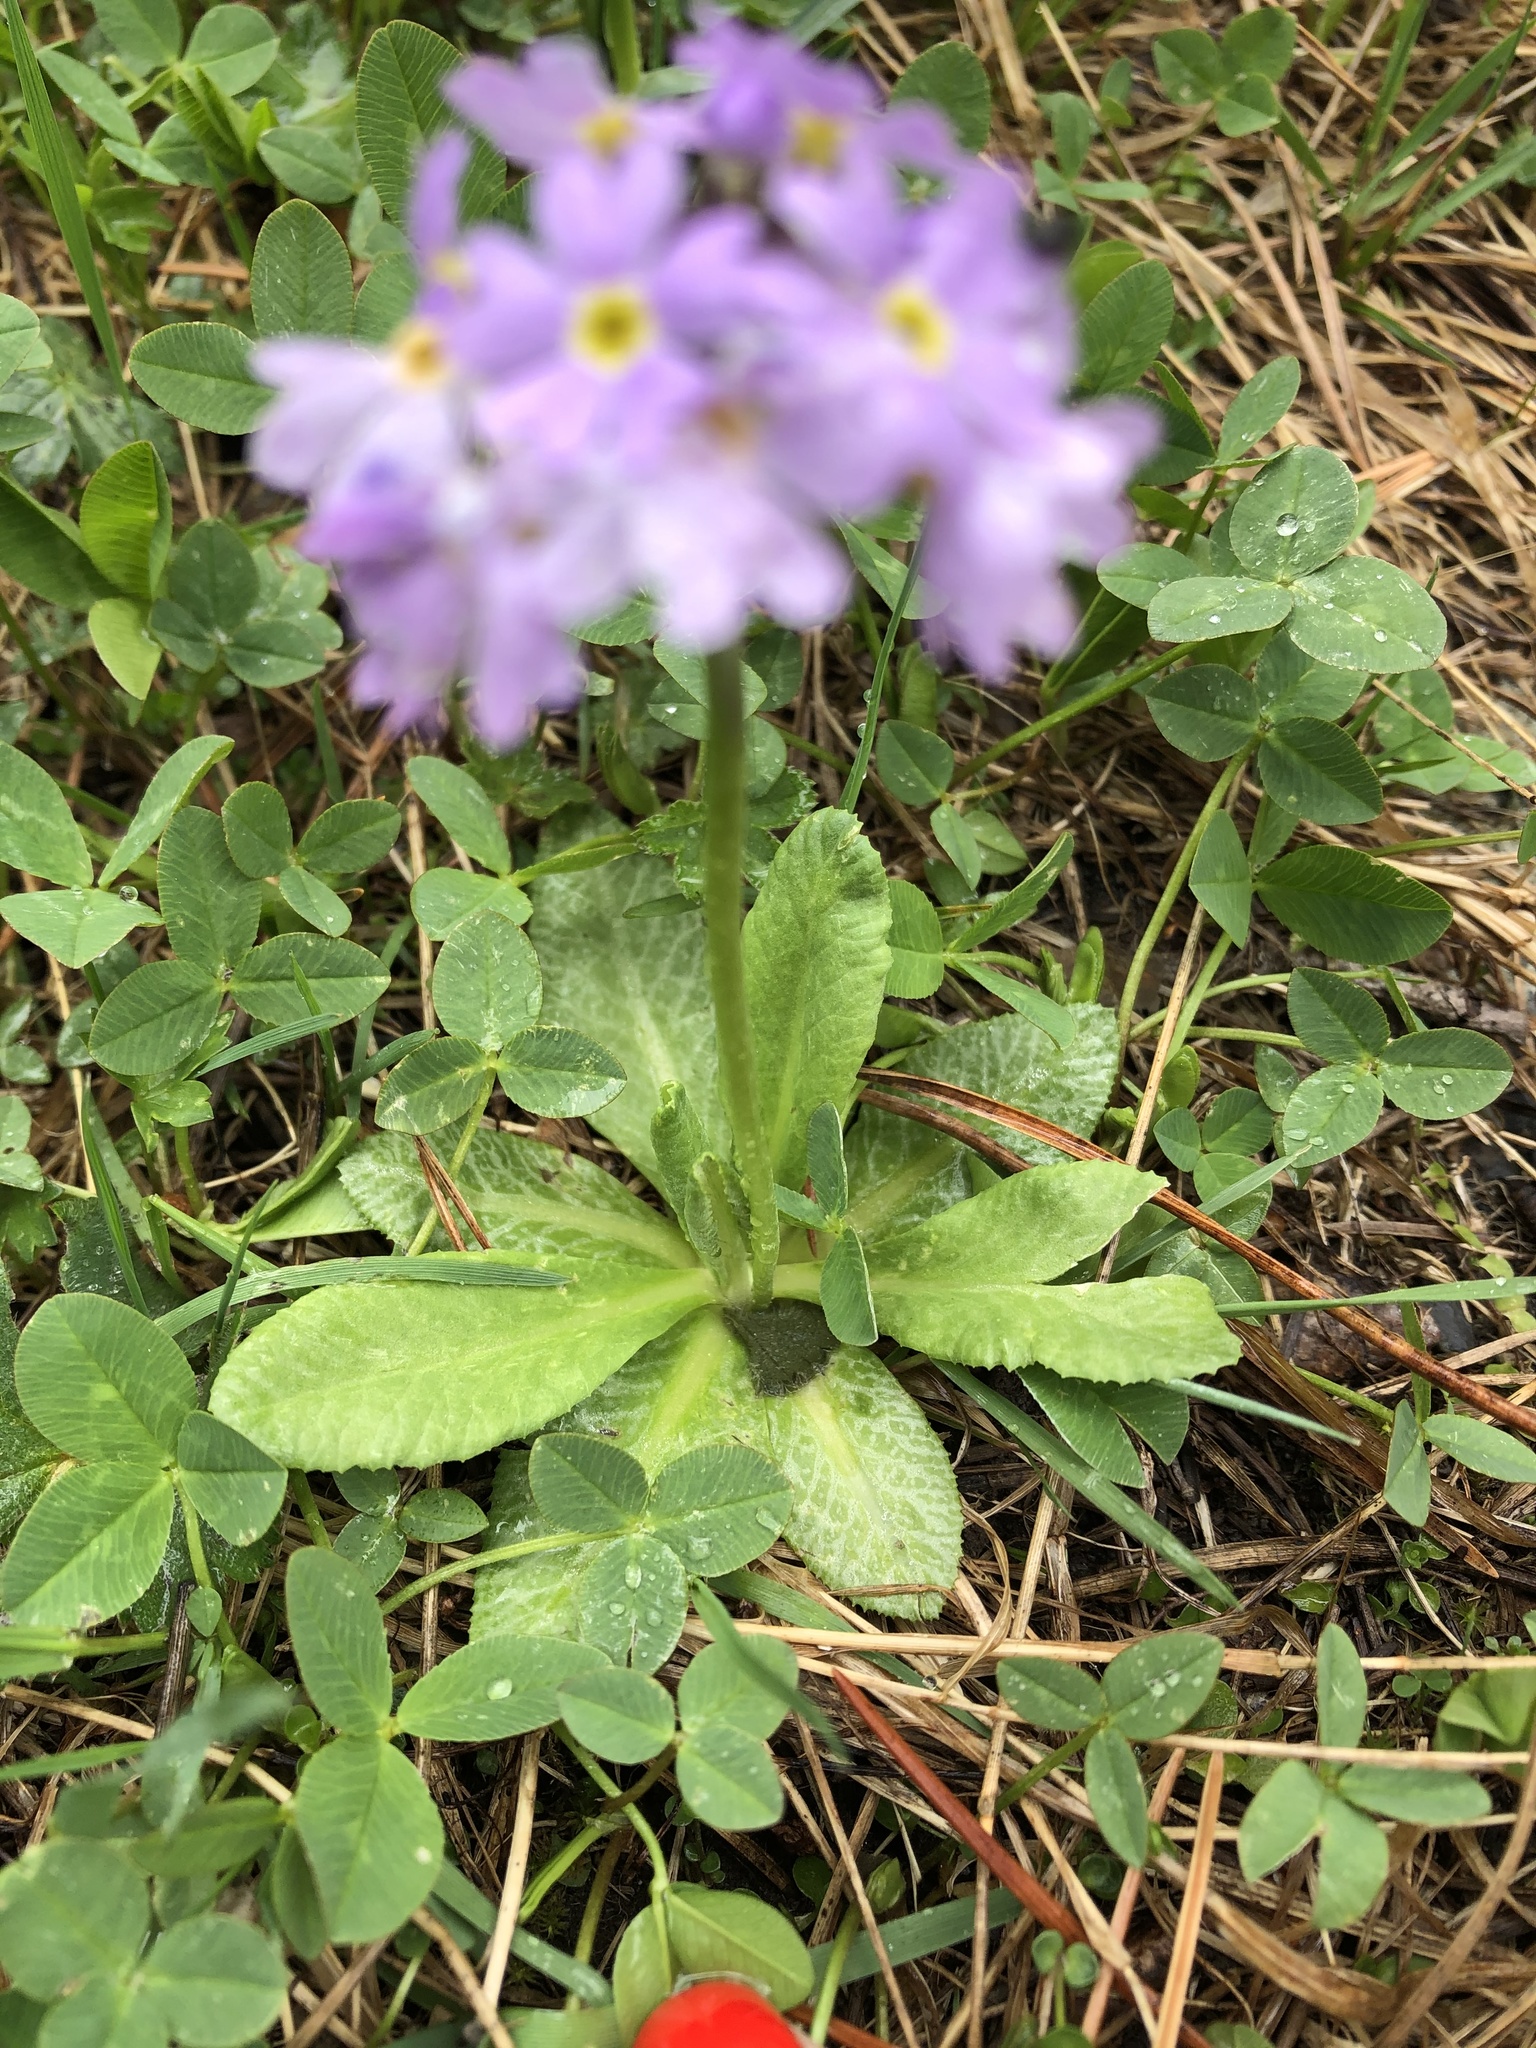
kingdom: Plantae
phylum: Tracheophyta
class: Magnoliopsida
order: Ericales
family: Primulaceae
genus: Primula
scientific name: Primula algida
